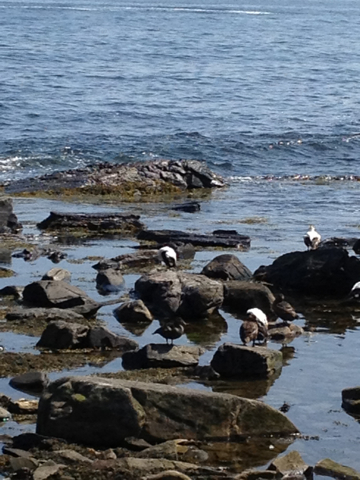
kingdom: Animalia
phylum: Chordata
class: Aves
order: Anseriformes
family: Anatidae
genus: Somateria
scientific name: Somateria mollissima
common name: Common eider
